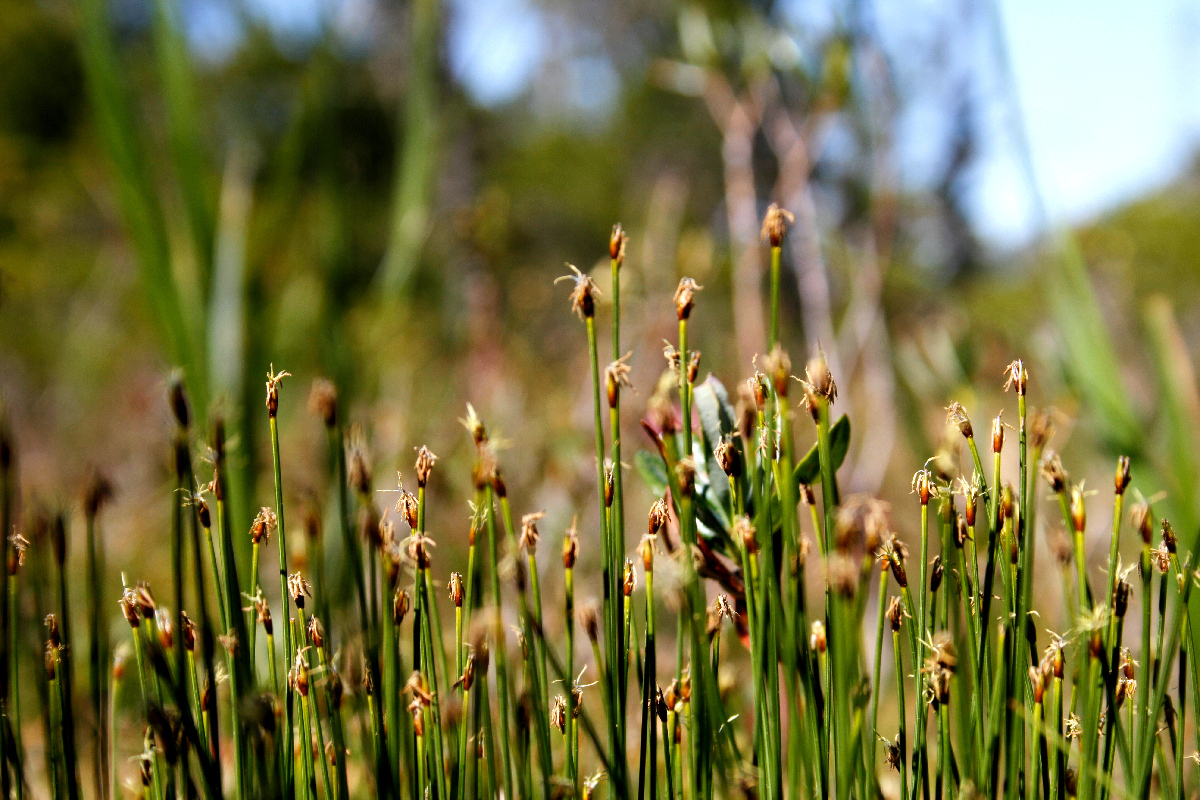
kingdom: Plantae
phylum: Tracheophyta
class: Liliopsida
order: Poales
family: Cyperaceae
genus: Trichophorum
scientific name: Trichophorum cespitosum
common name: Cespitose bulrush
